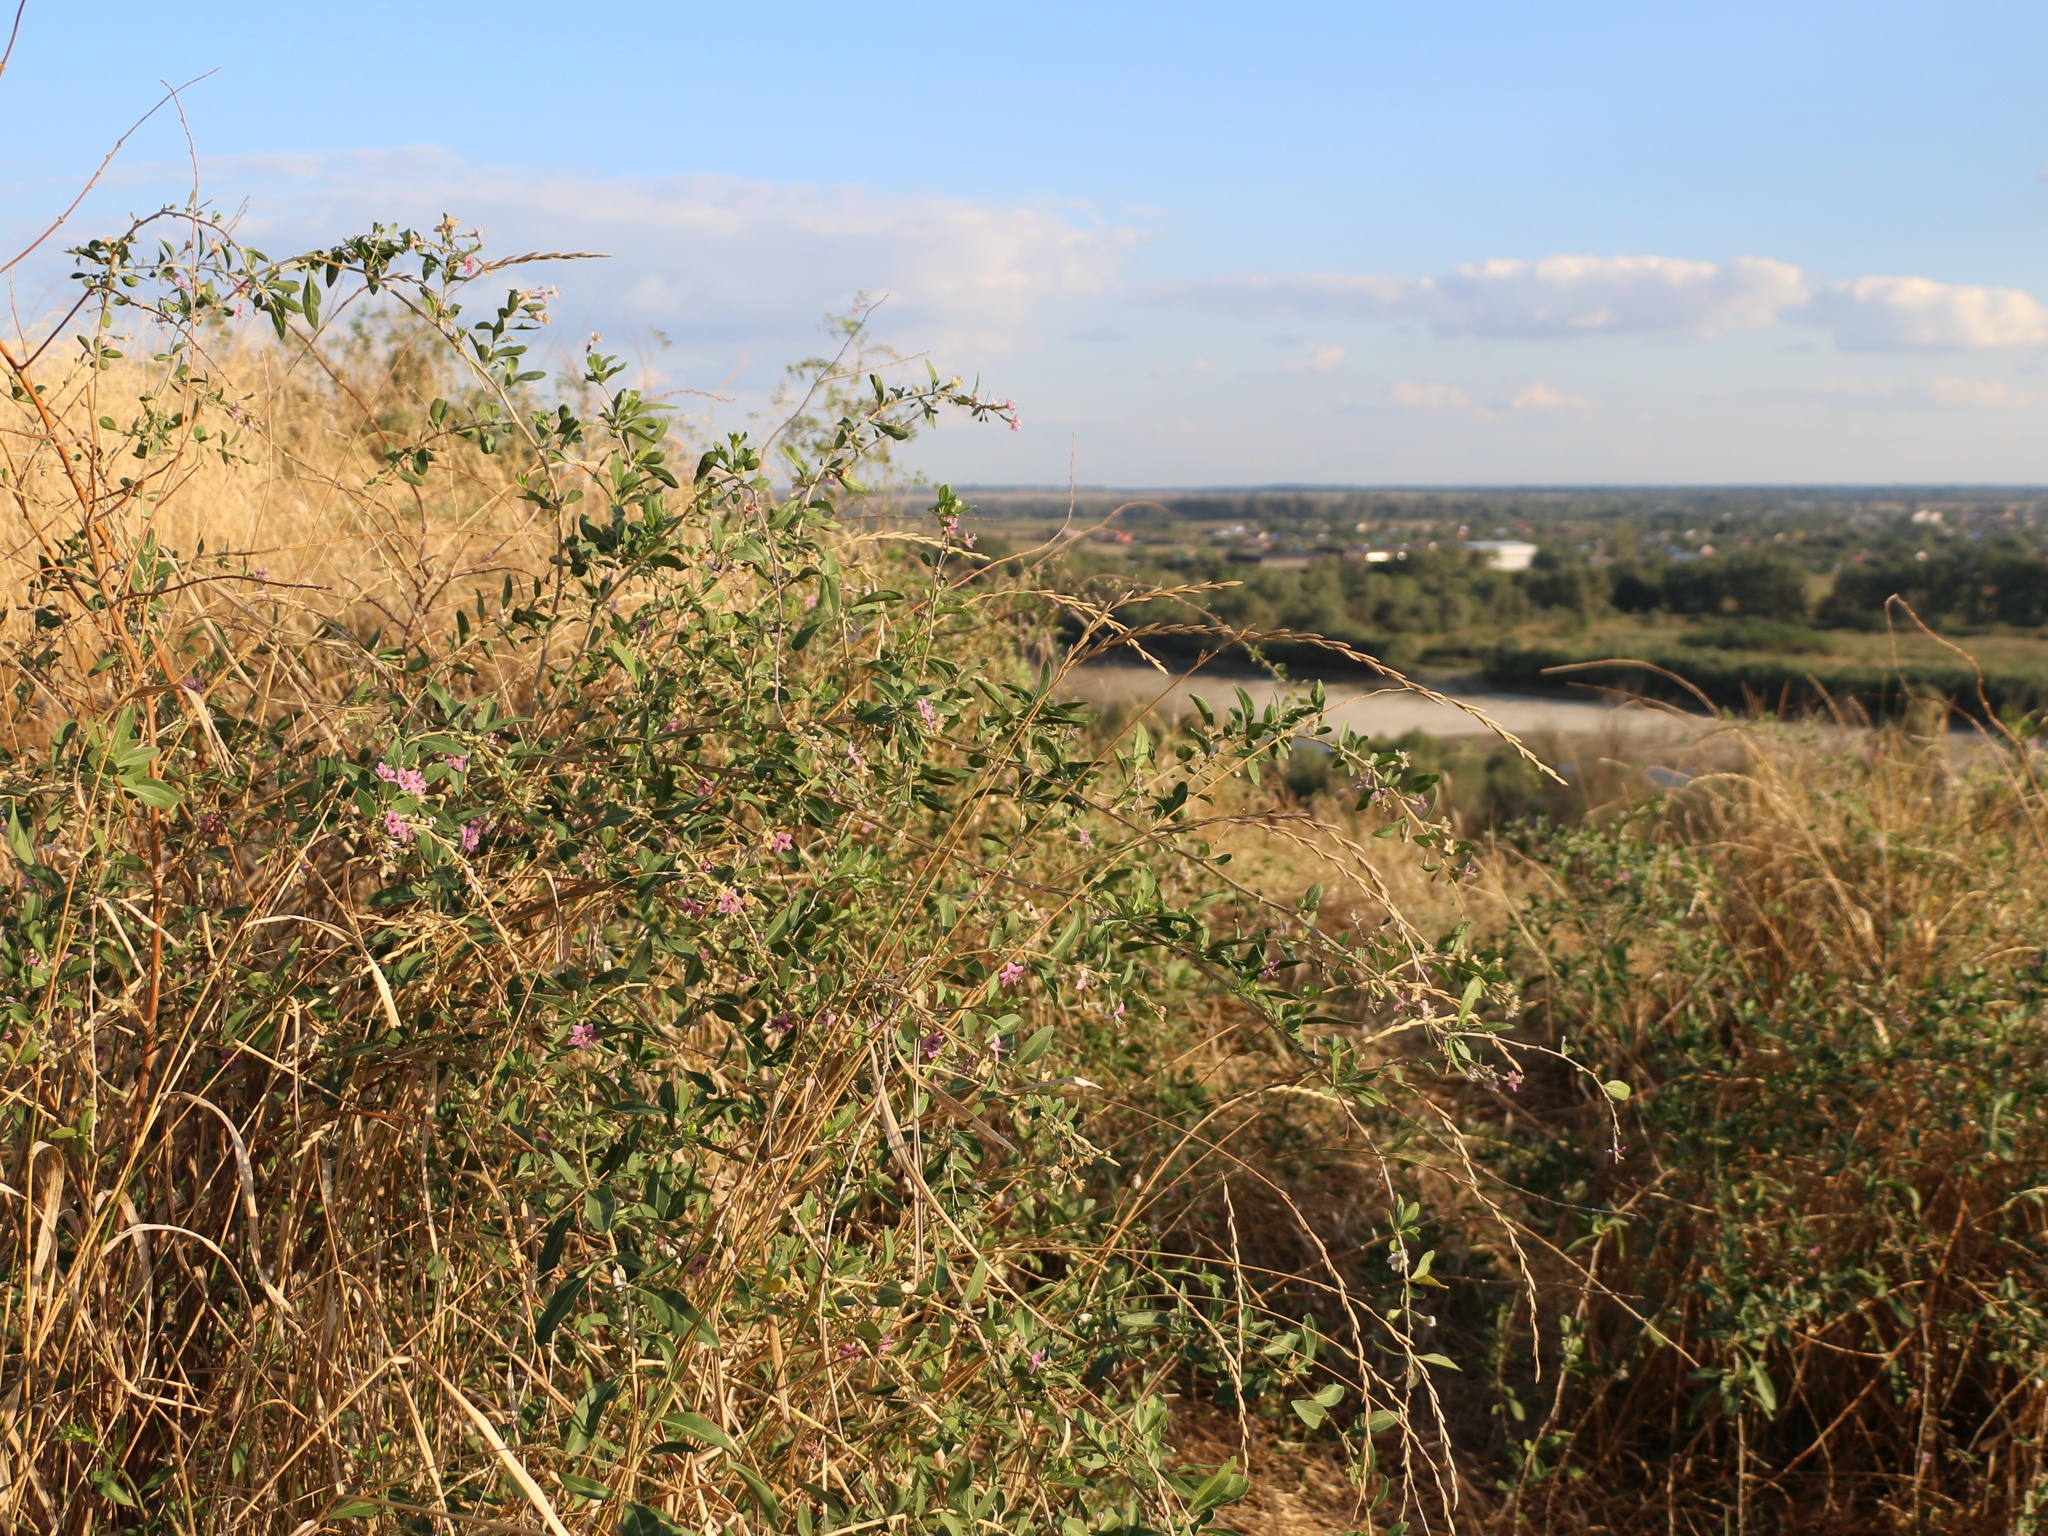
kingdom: Plantae
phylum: Tracheophyta
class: Magnoliopsida
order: Solanales
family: Solanaceae
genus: Lycium
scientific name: Lycium barbarum
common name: Duke of argyll's teaplant
